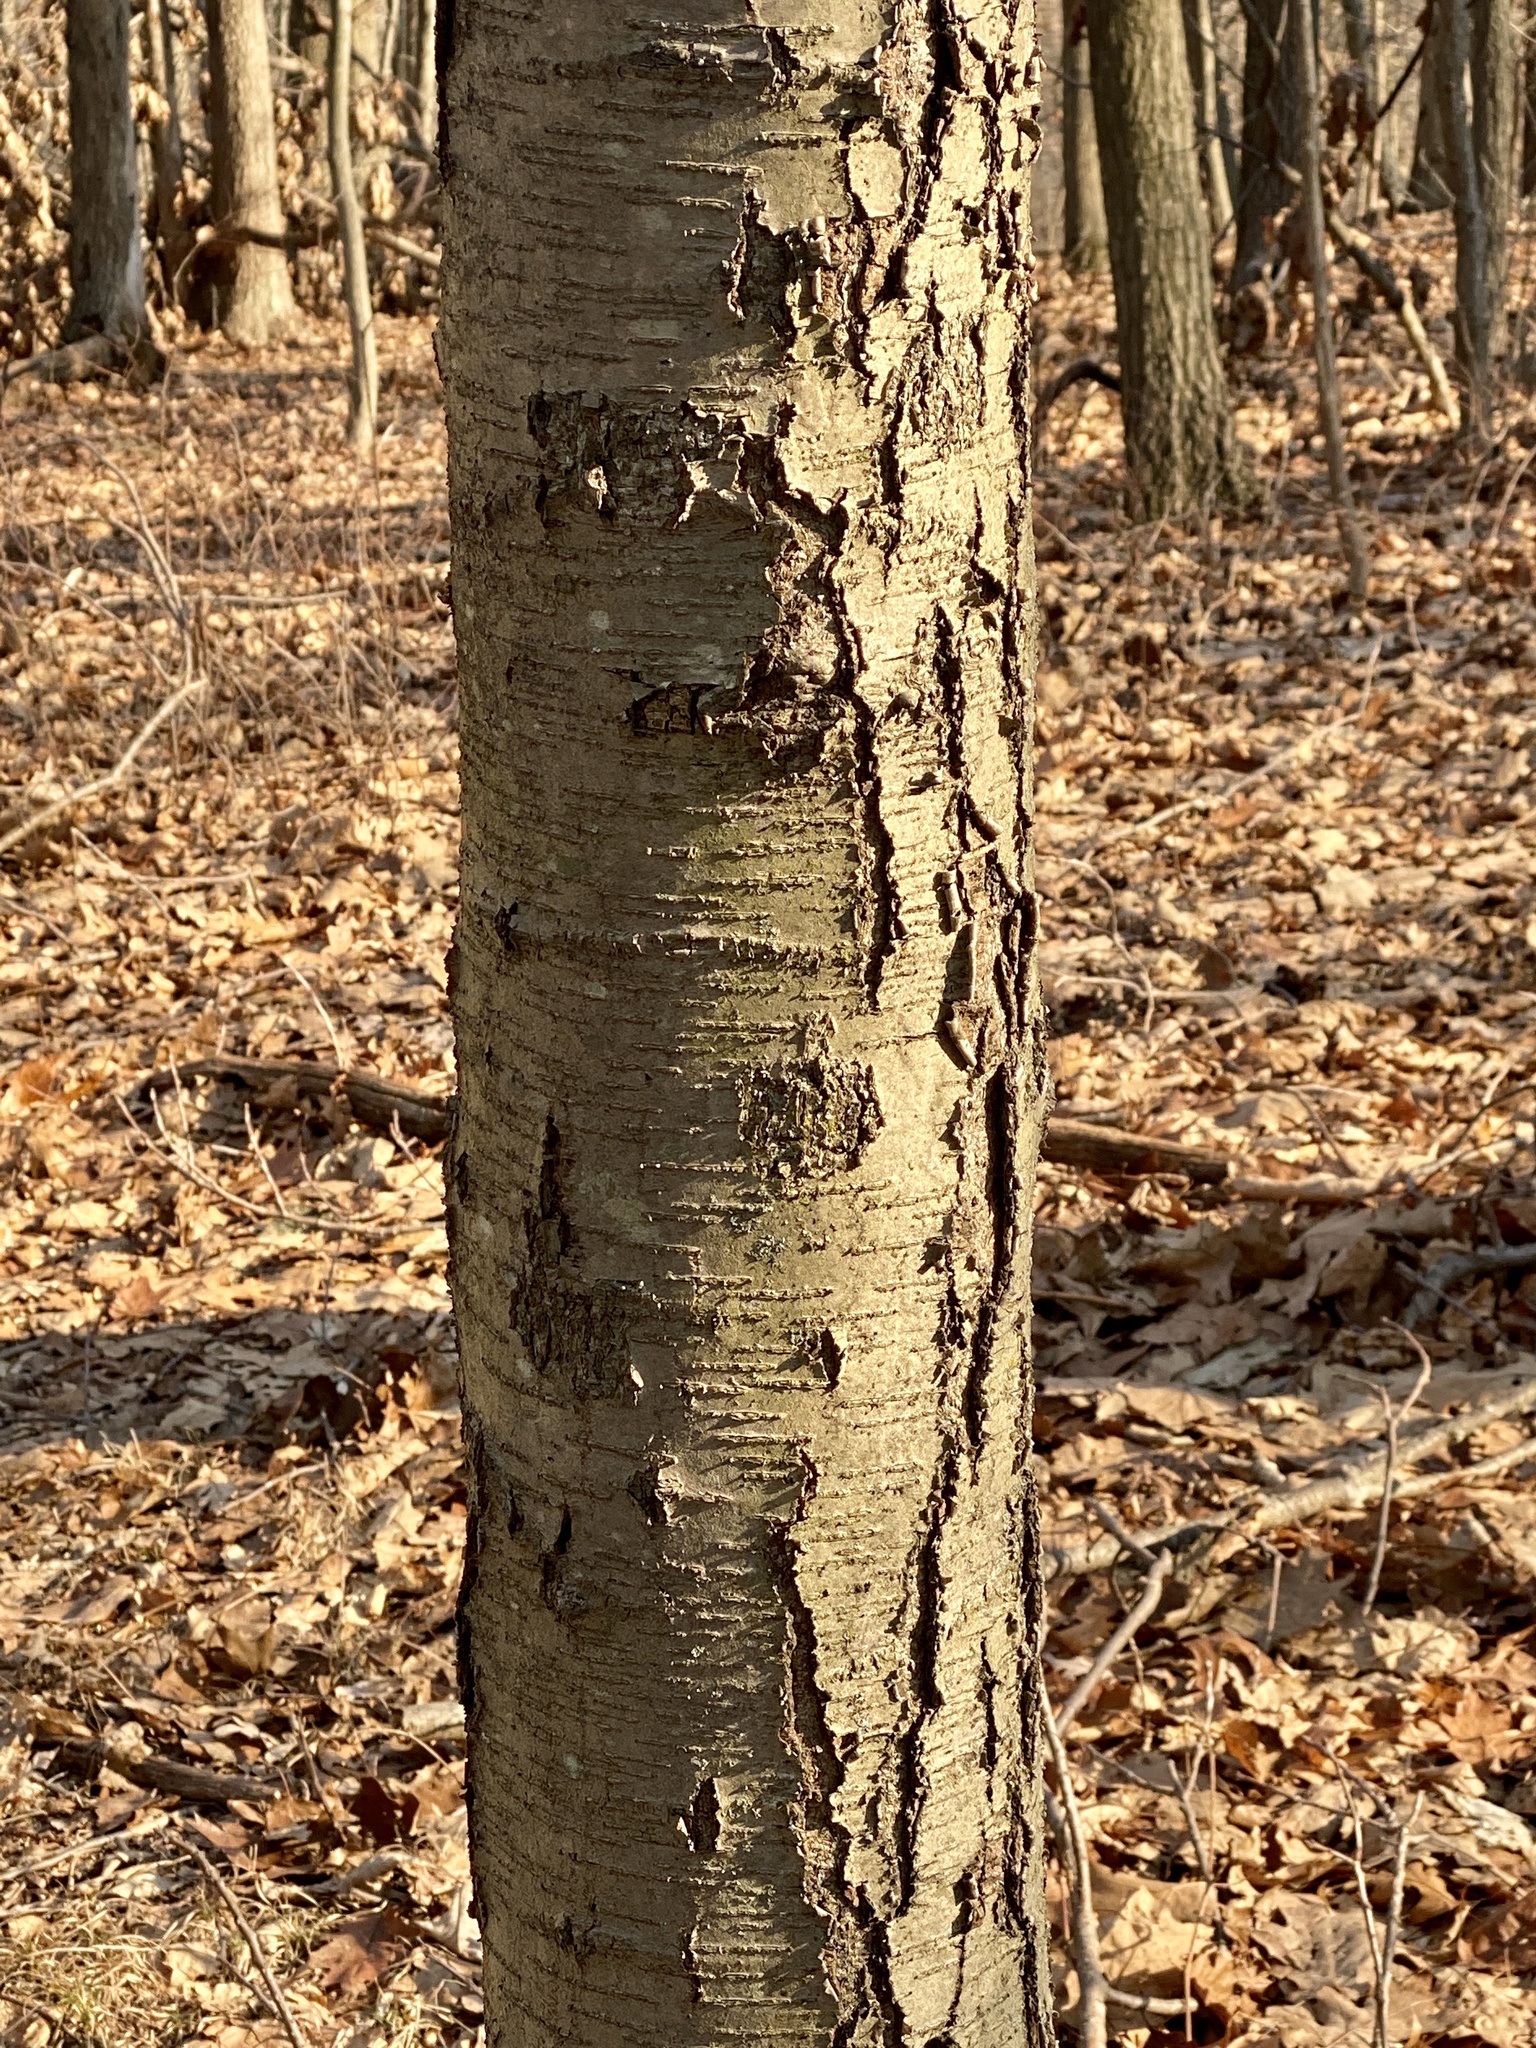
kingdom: Plantae
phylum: Tracheophyta
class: Magnoliopsida
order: Fagales
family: Betulaceae
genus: Betula
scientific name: Betula lenta
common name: Black birch
